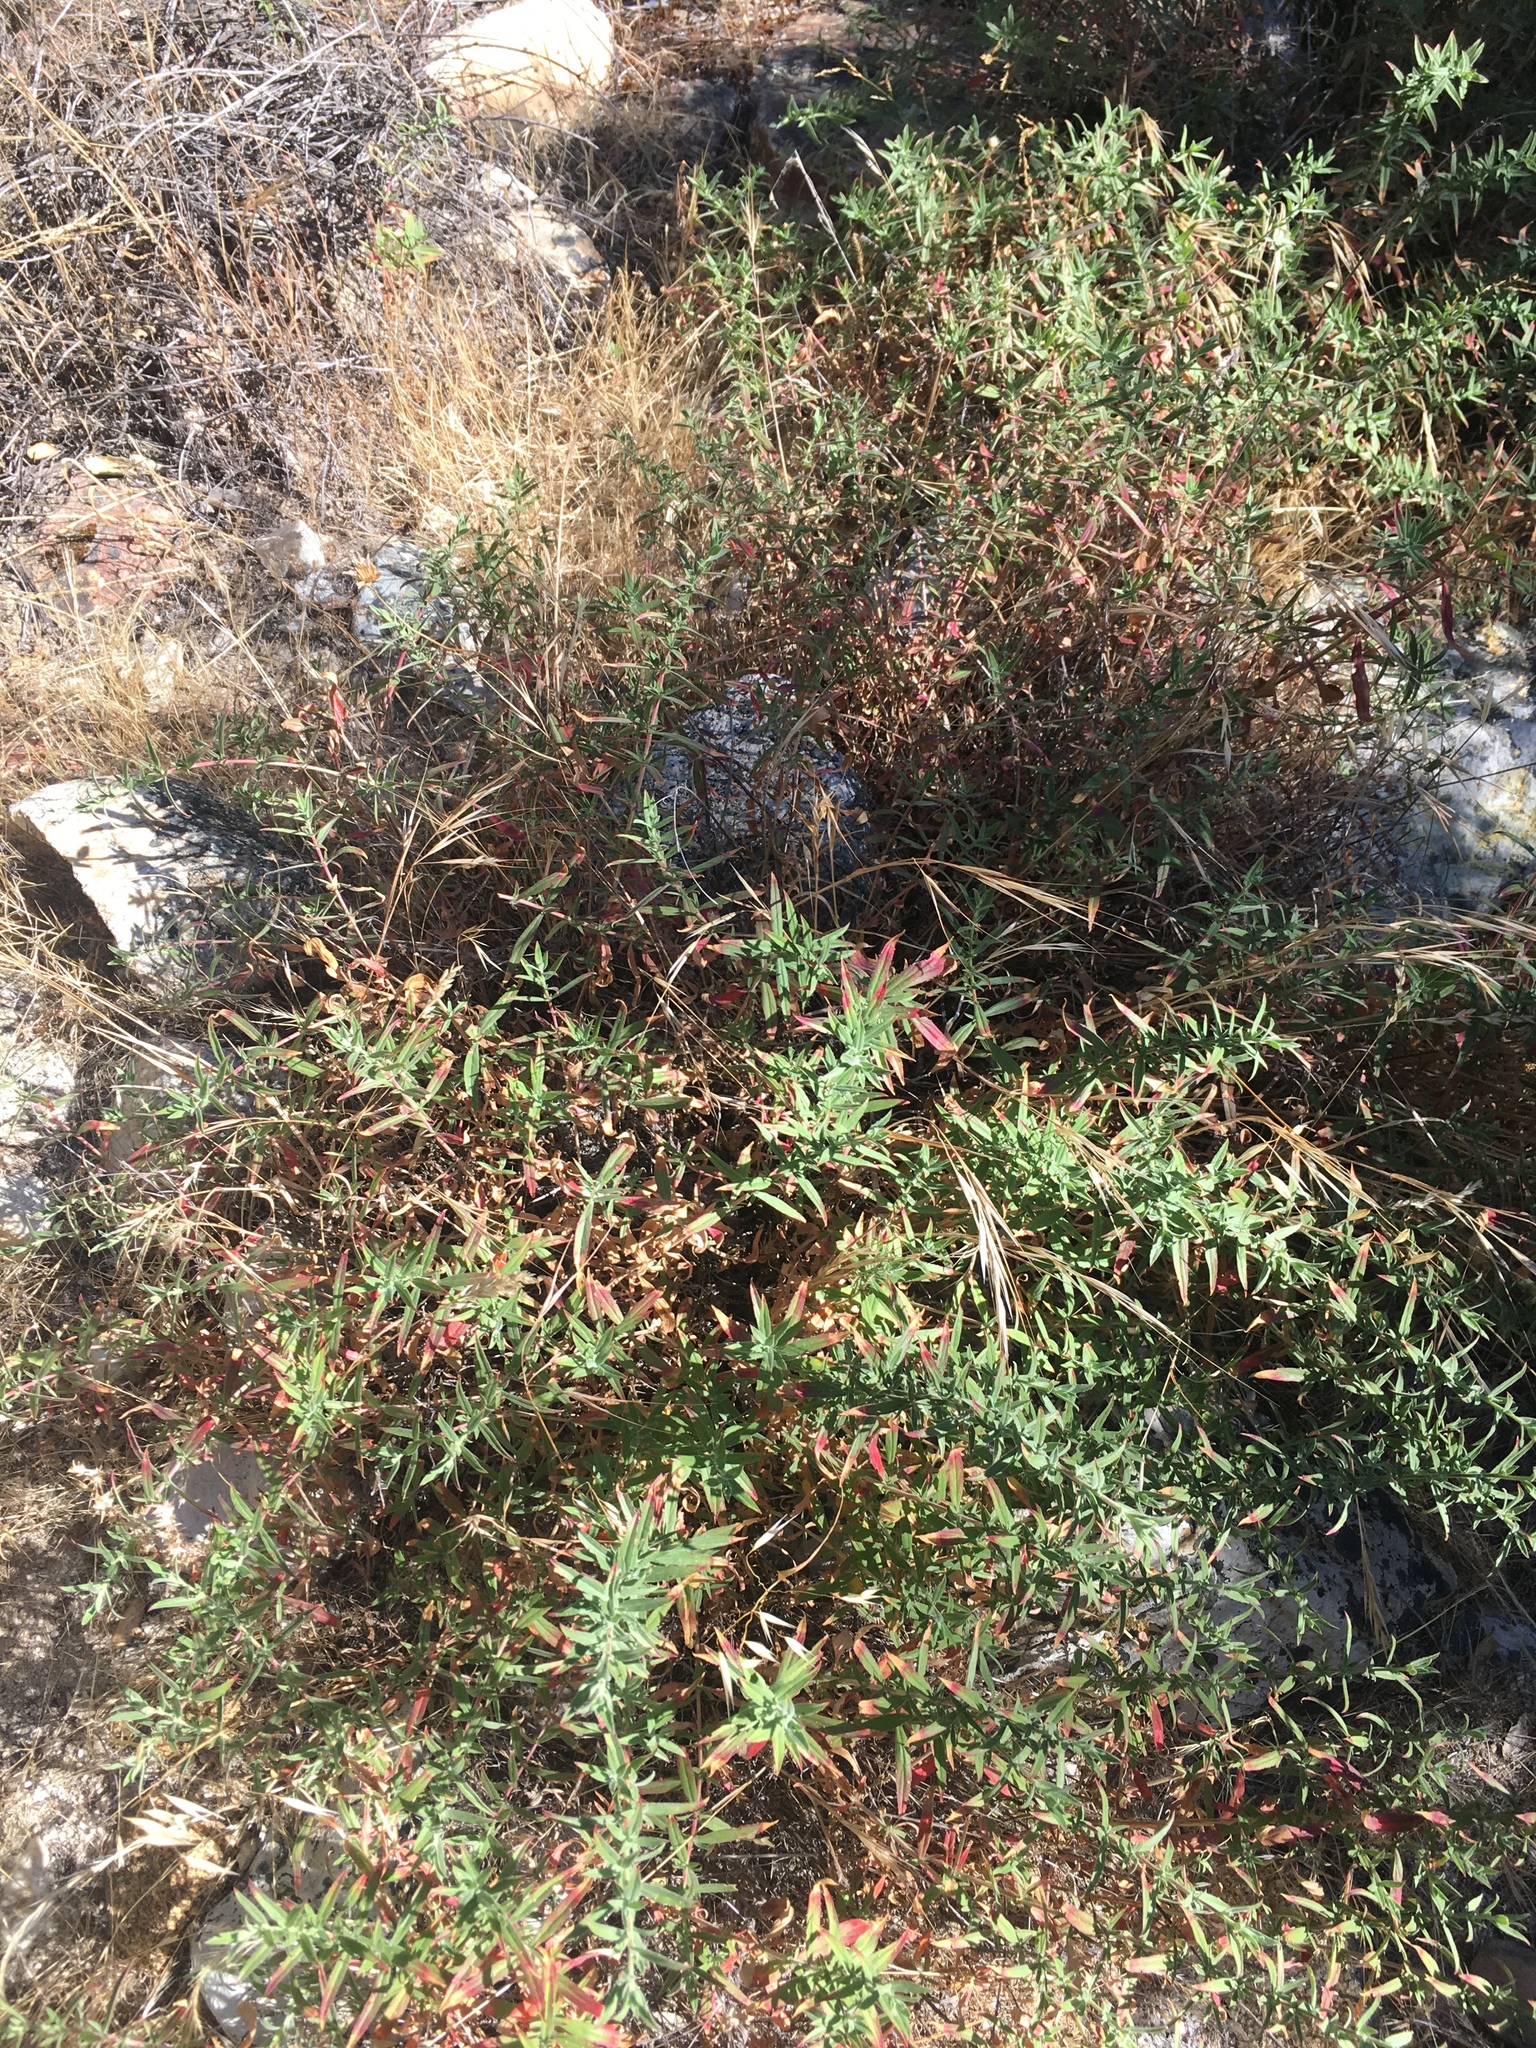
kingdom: Plantae
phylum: Tracheophyta
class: Magnoliopsida
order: Myrtales
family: Onagraceae
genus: Epilobium
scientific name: Epilobium canum
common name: California-fuchsia
